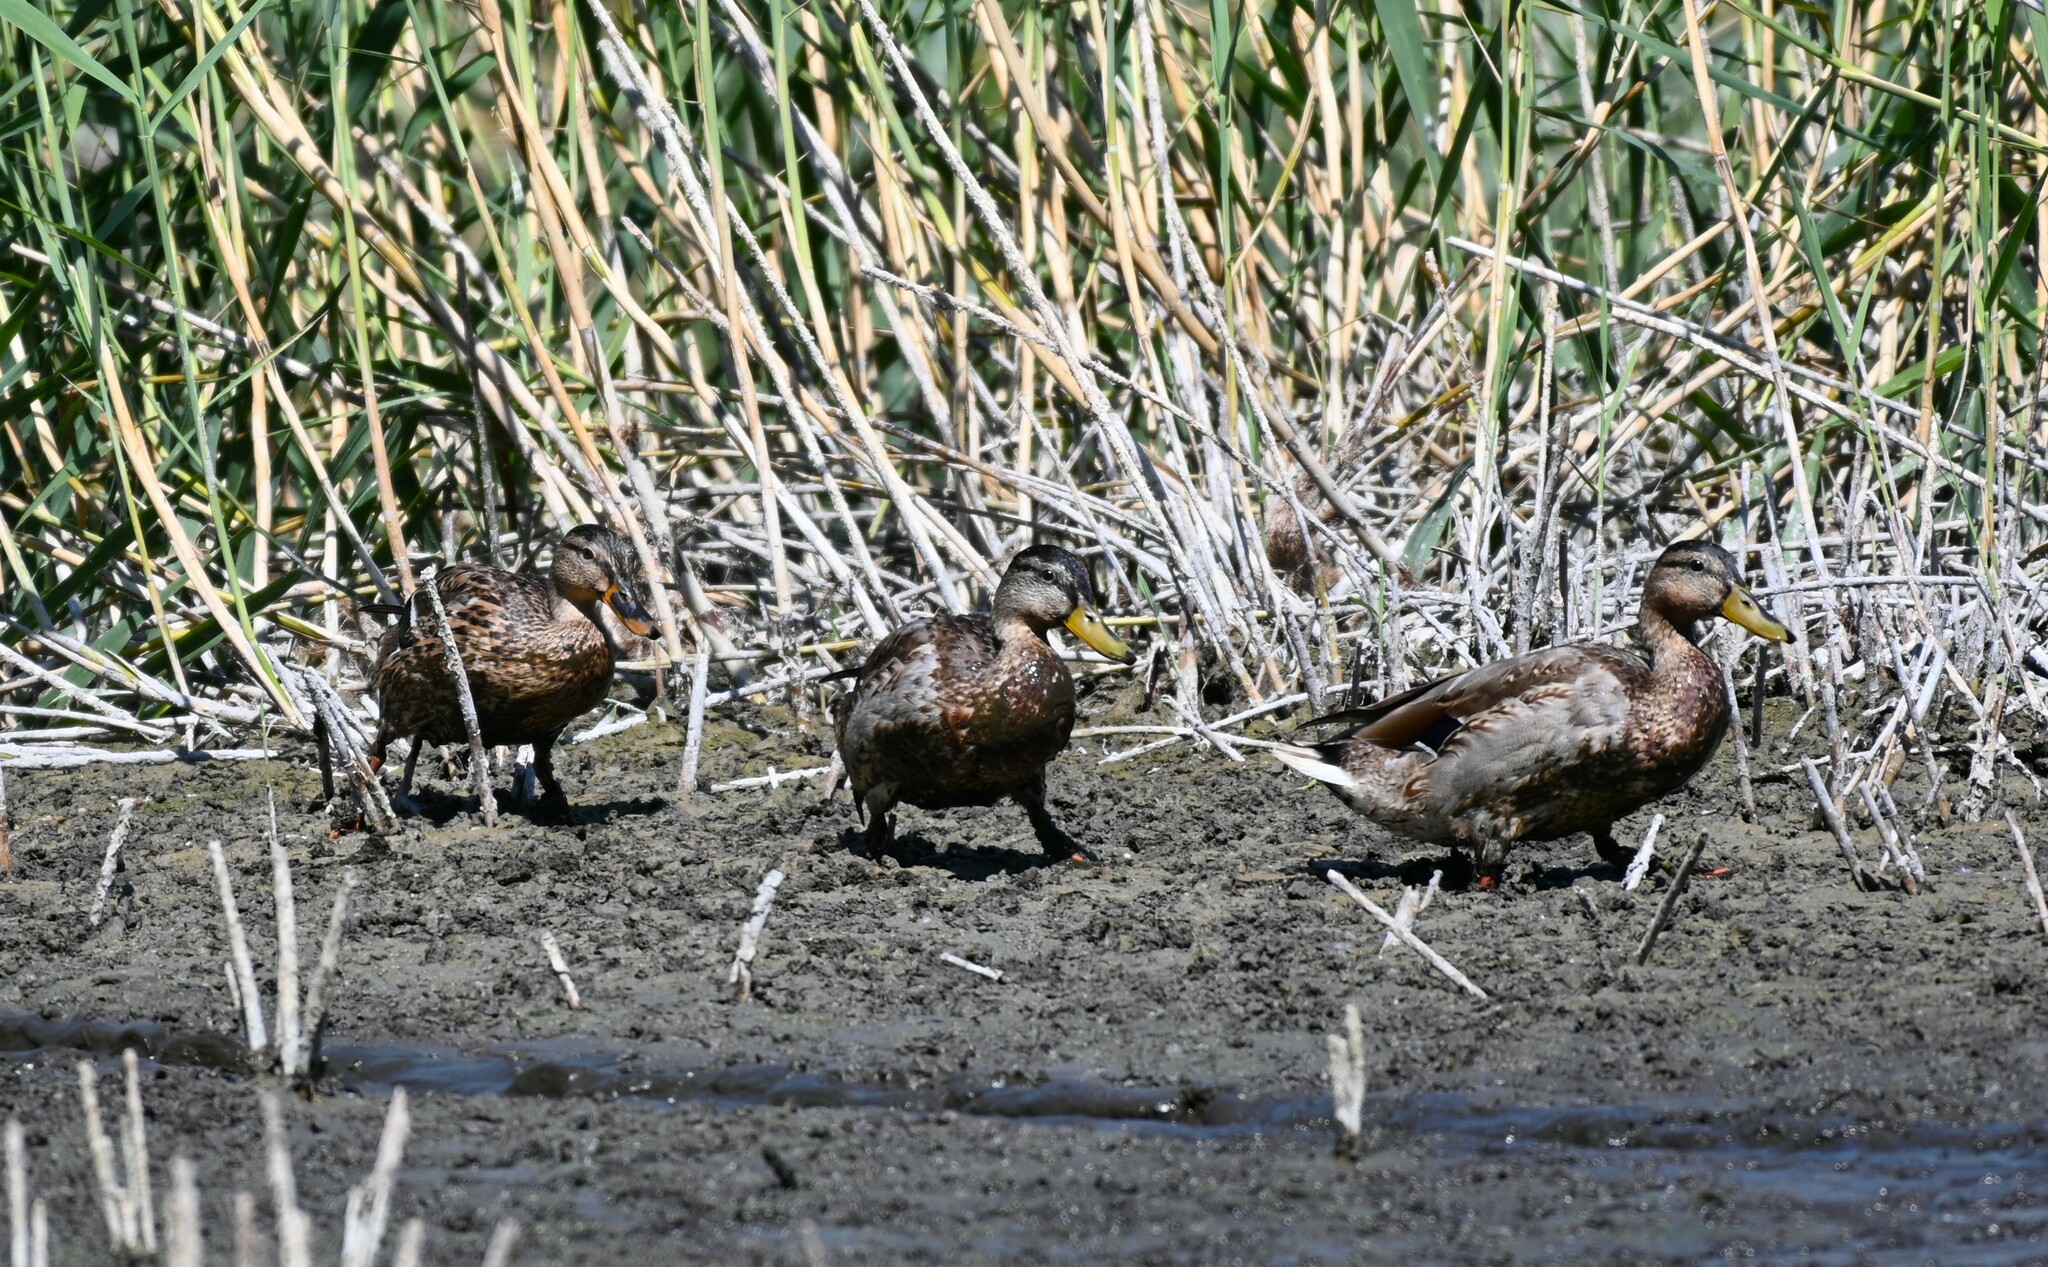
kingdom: Animalia
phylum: Chordata
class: Aves
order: Anseriformes
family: Anatidae
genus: Anas
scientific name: Anas platyrhynchos
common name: Mallard
